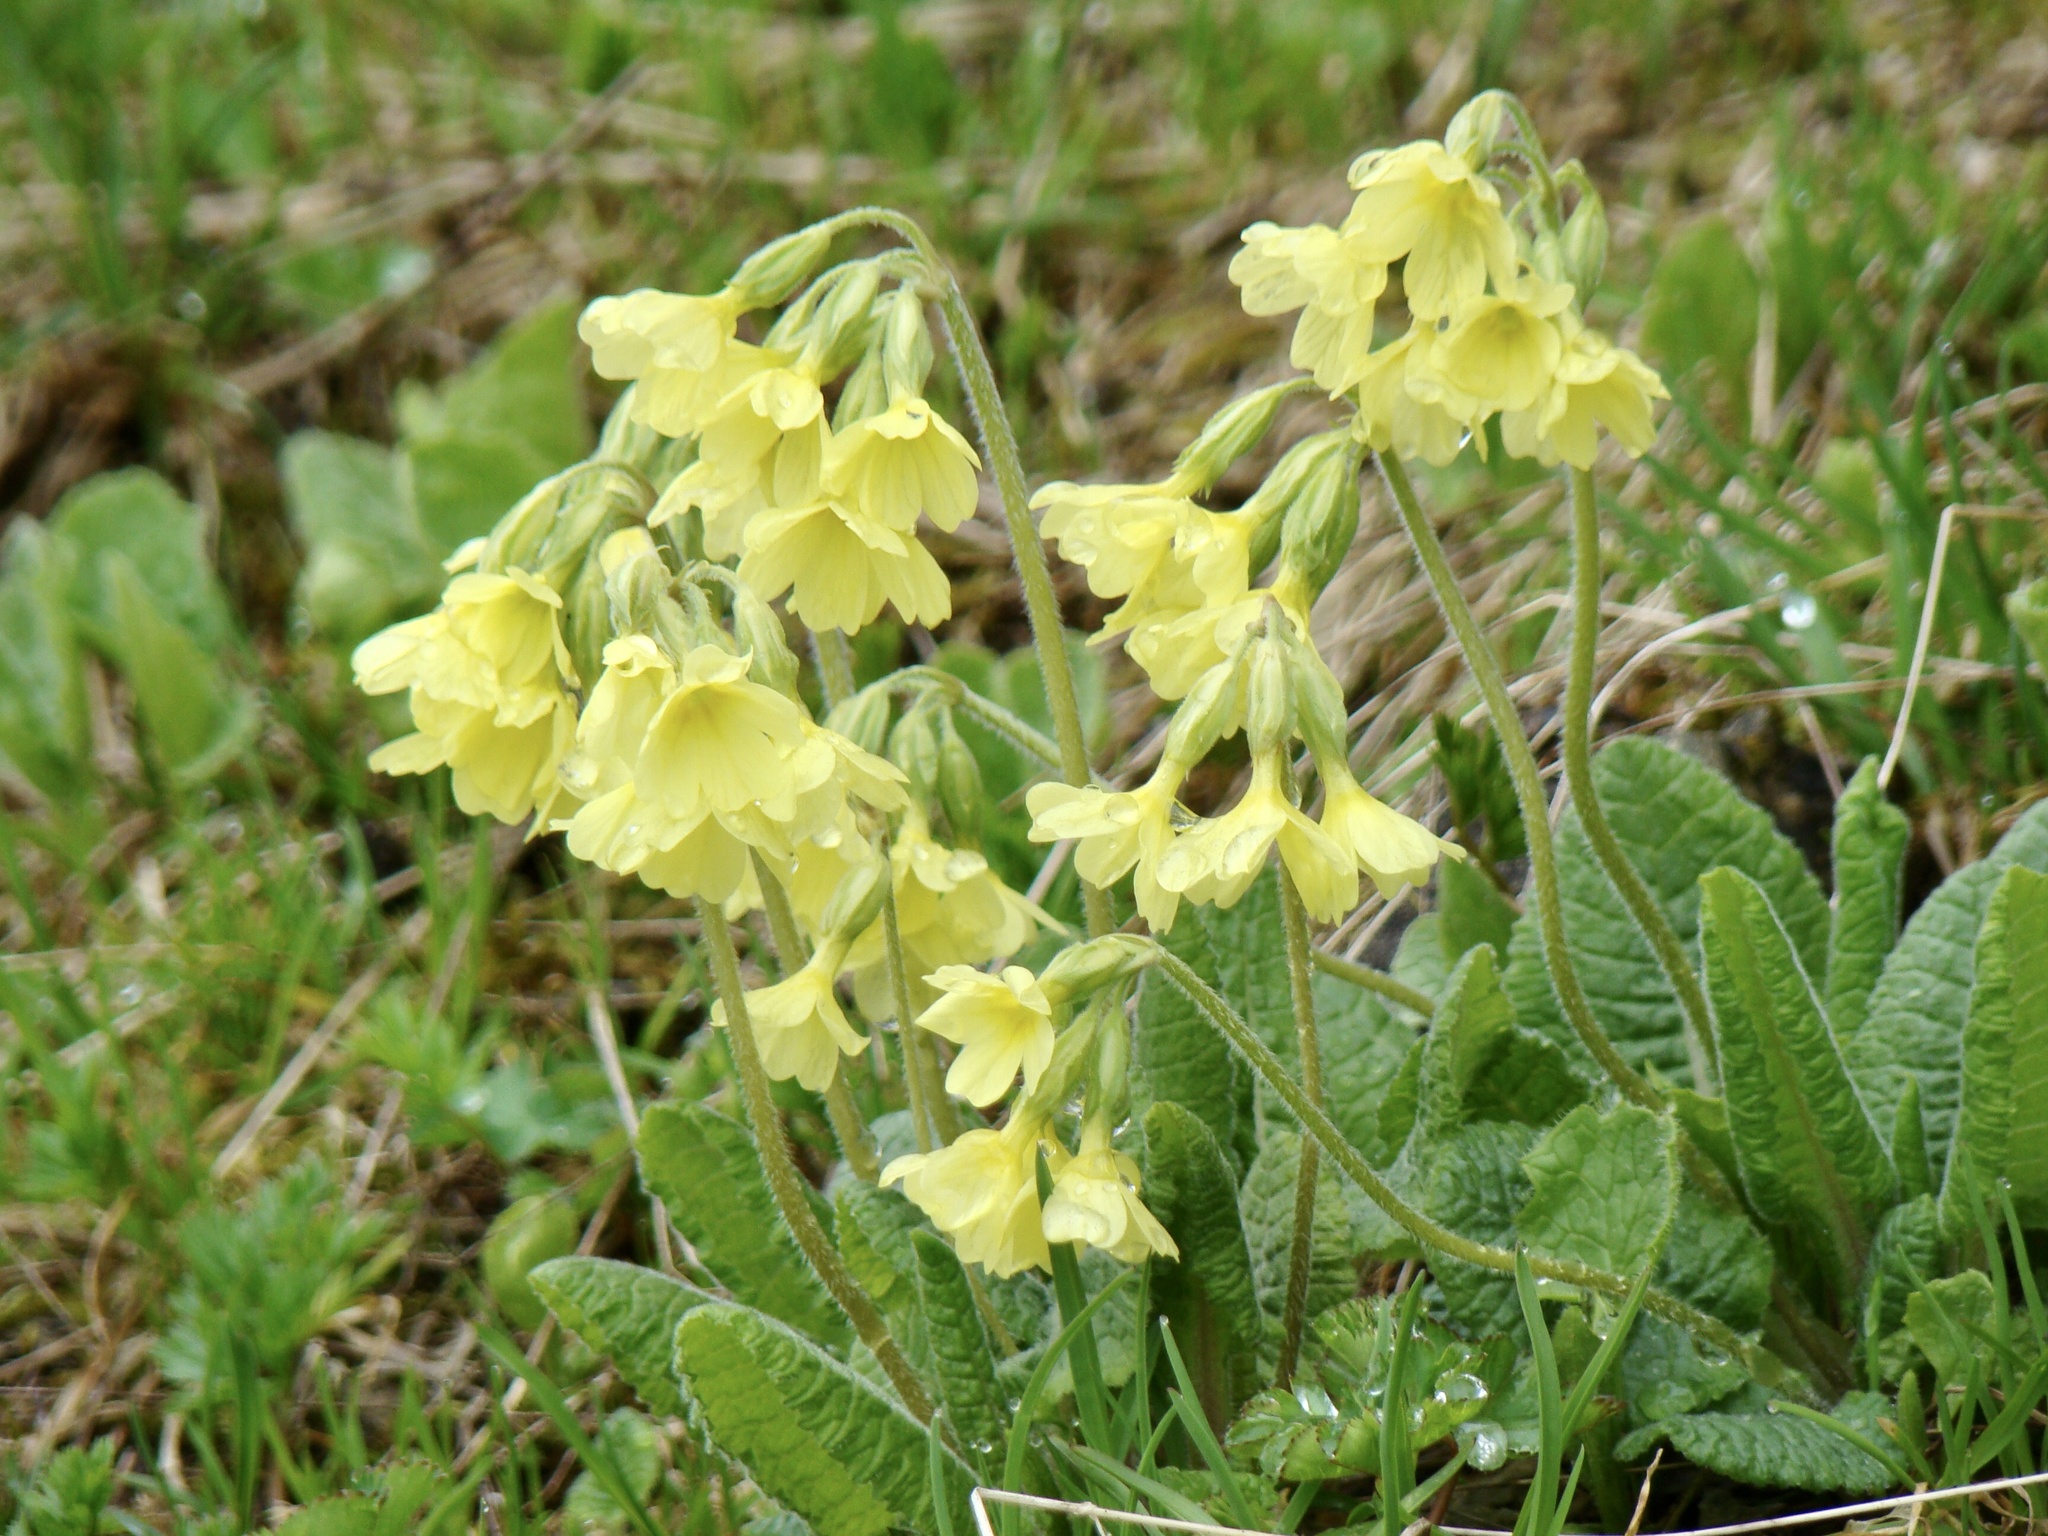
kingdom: Plantae
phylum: Tracheophyta
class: Magnoliopsida
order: Ericales
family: Primulaceae
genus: Primula
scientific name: Primula elatior
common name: Oxlip
